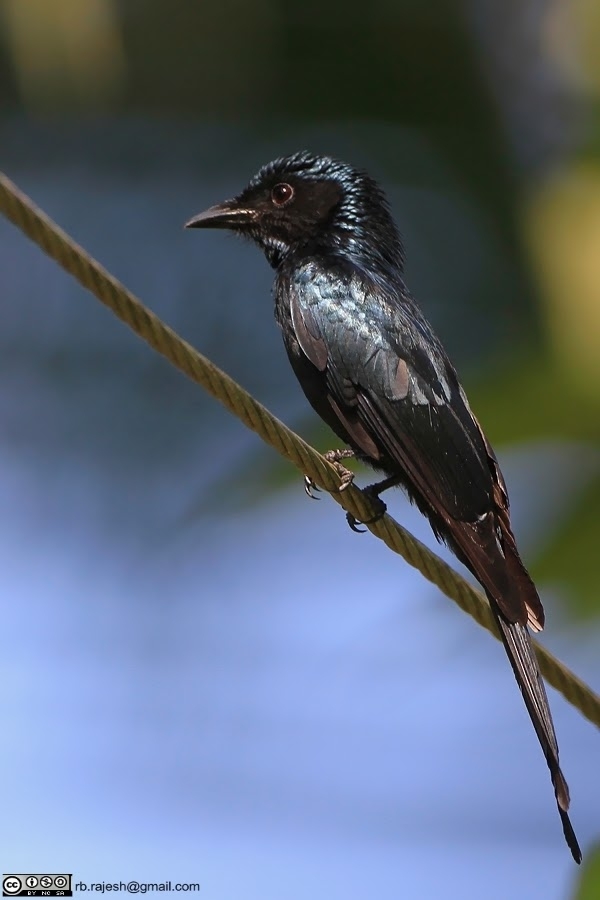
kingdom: Animalia
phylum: Chordata
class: Aves
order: Passeriformes
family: Dicruridae
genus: Dicrurus
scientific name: Dicrurus aeneus
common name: Bronzed drongo
